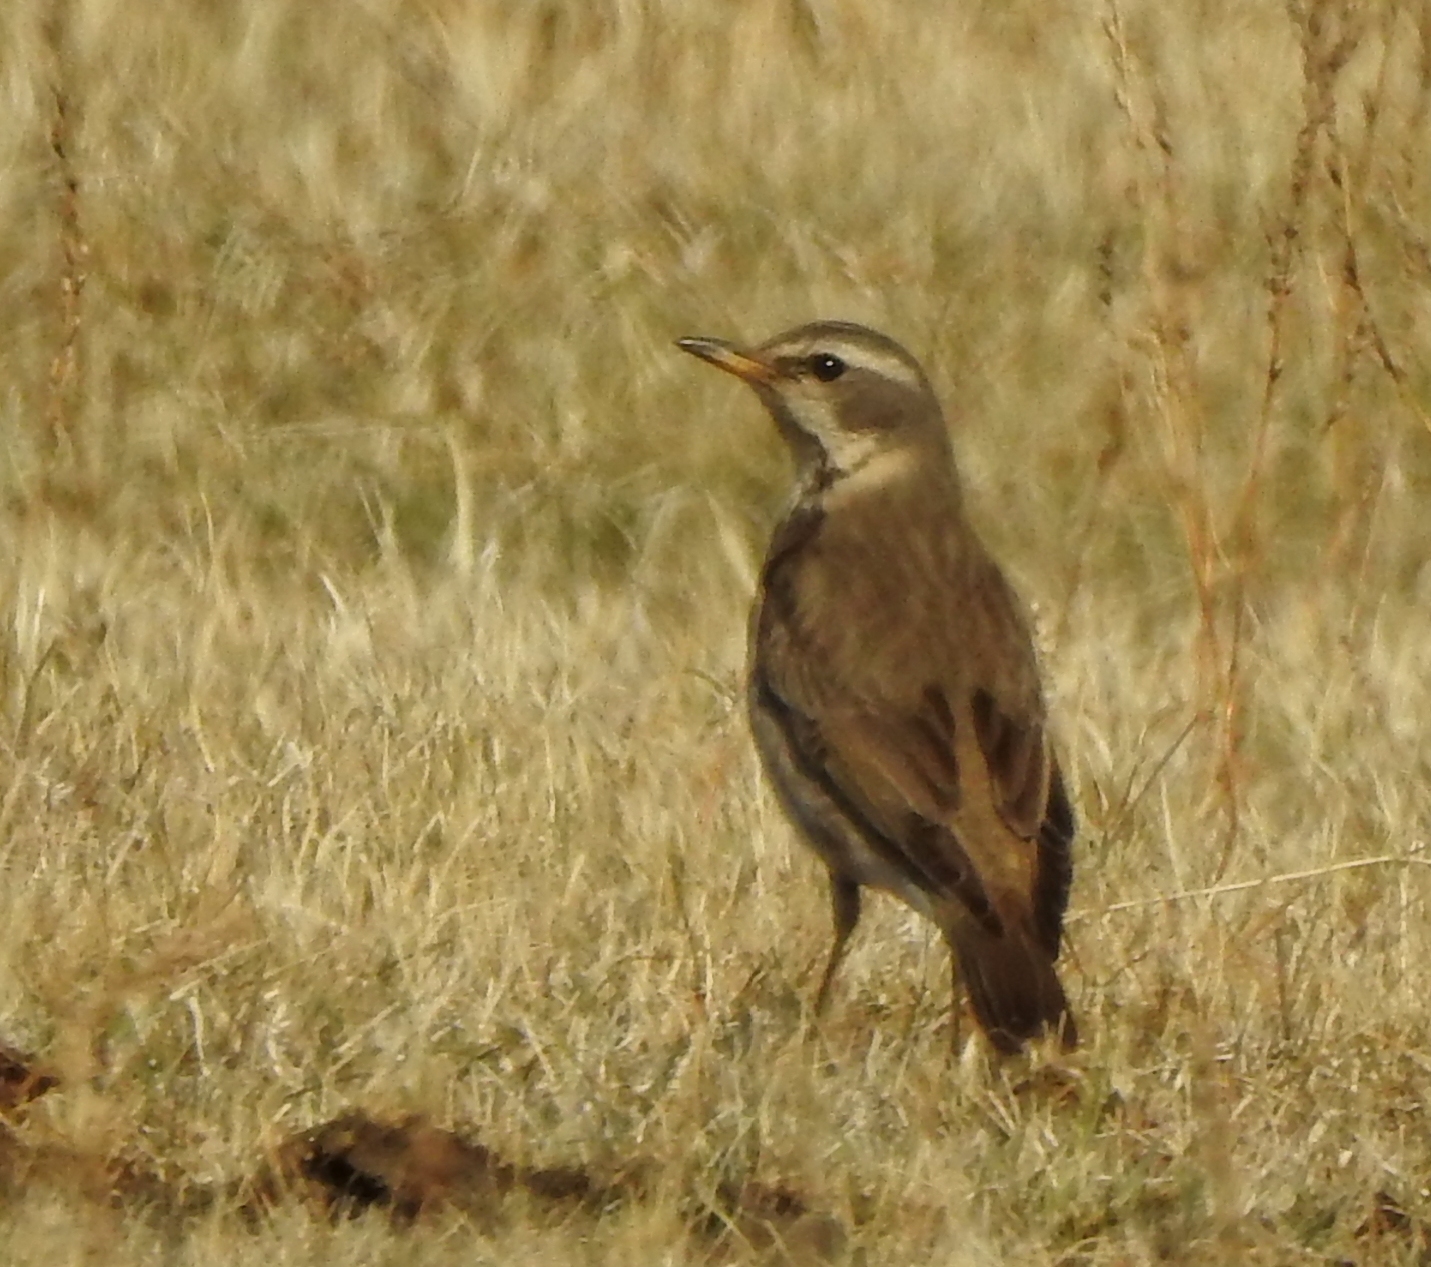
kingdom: Animalia
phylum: Chordata
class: Aves
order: Passeriformes
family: Turdidae
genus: Turdus
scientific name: Turdus eunomus
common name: Dusky thrush
